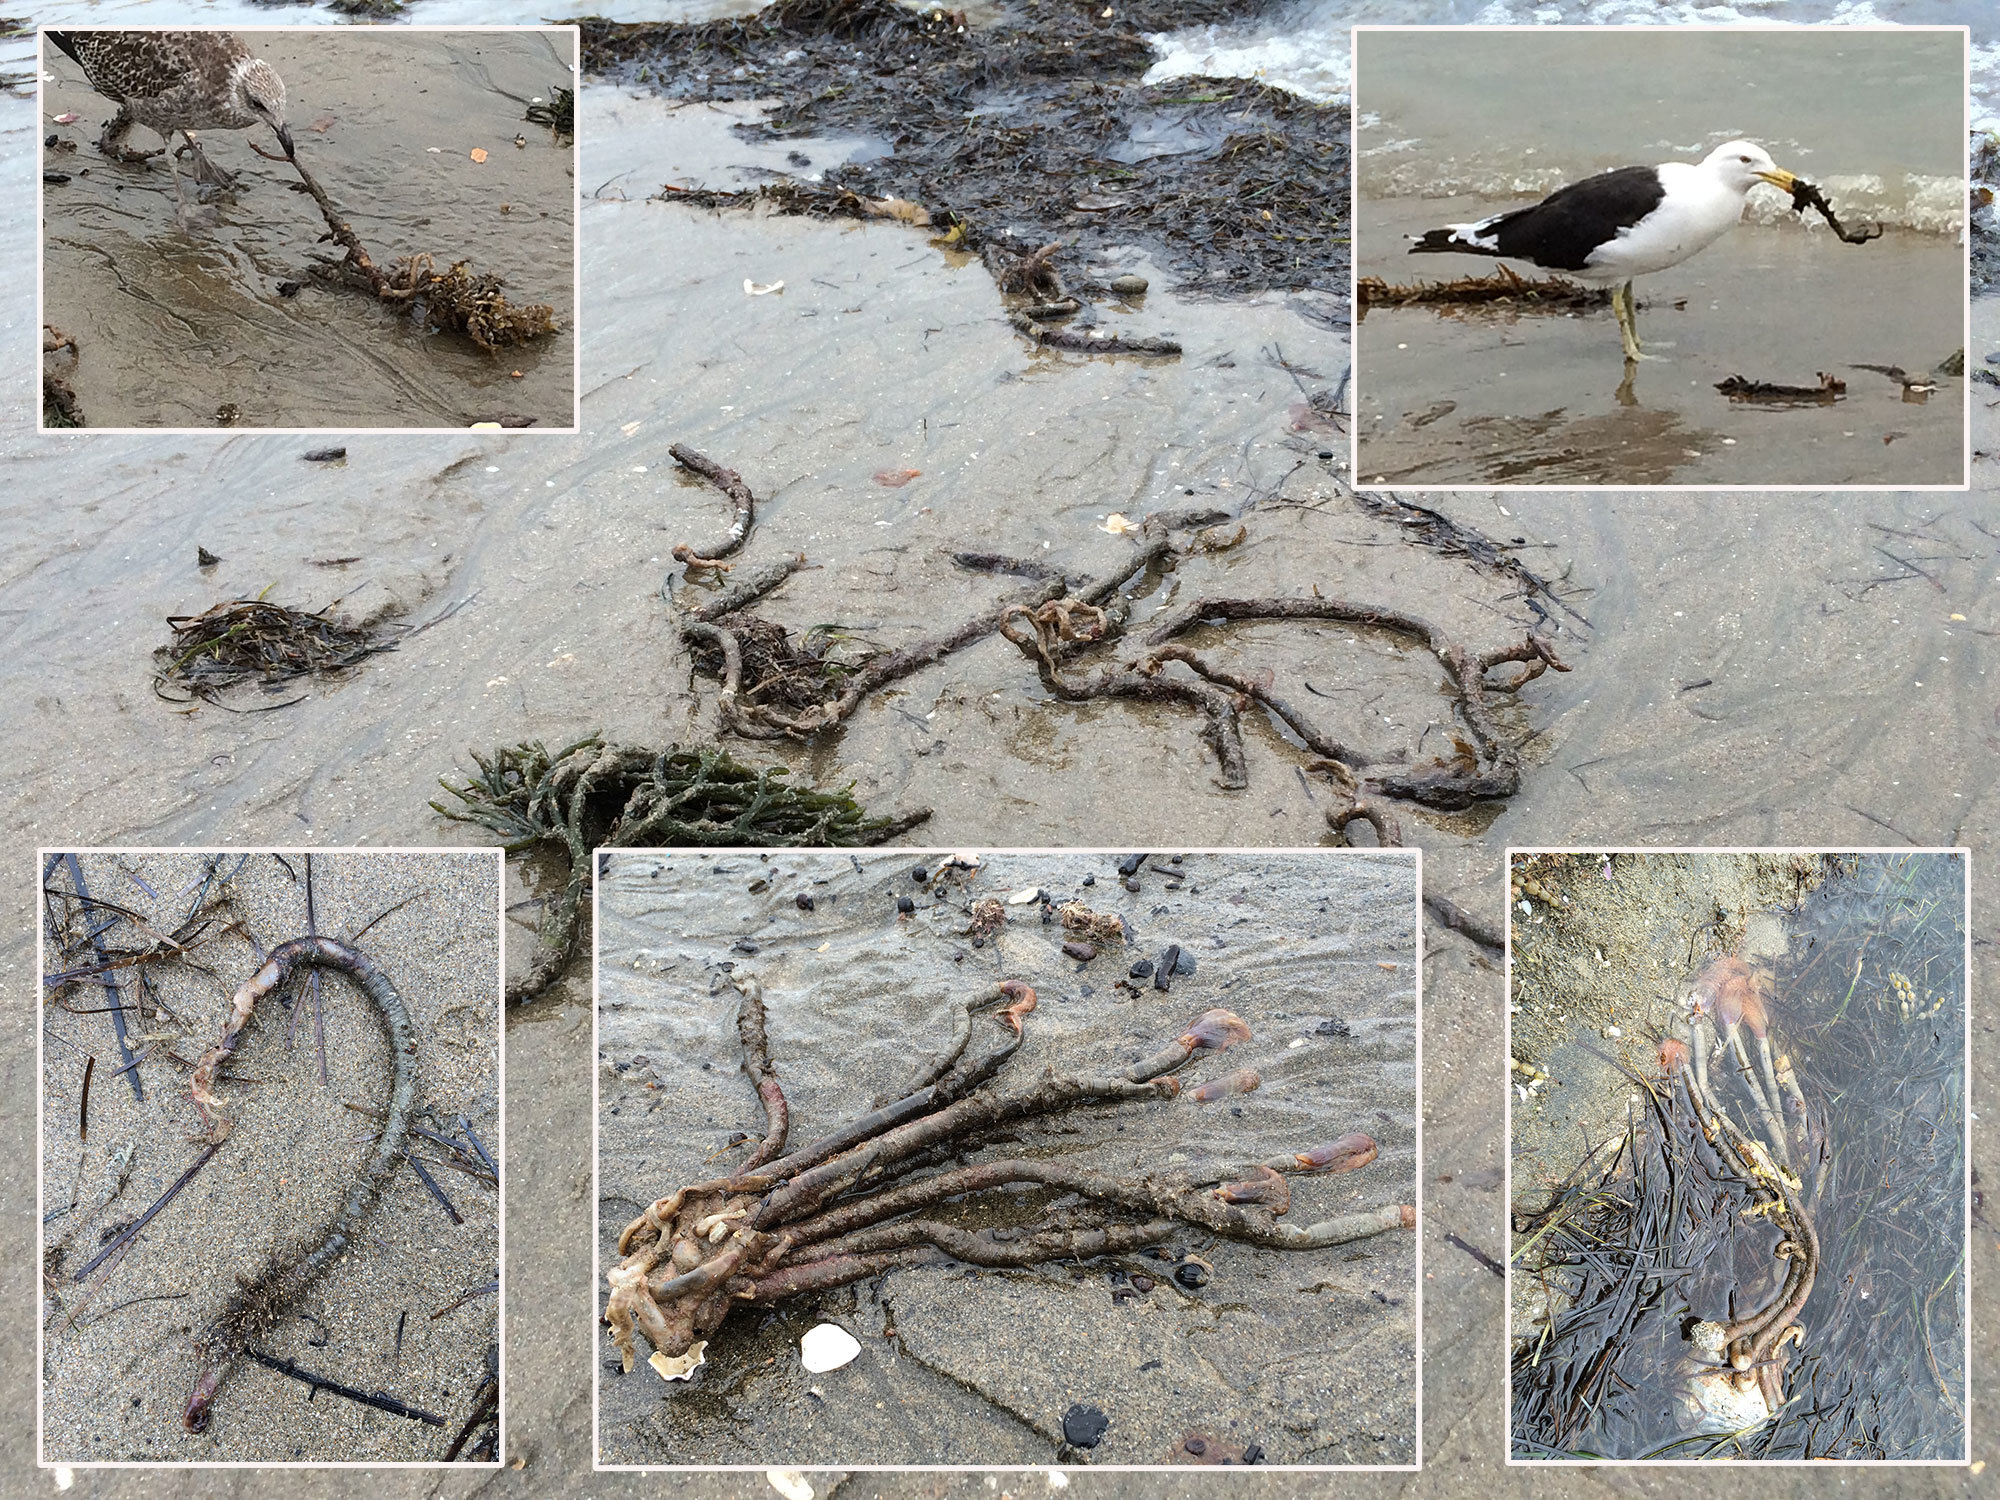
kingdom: Animalia
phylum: Annelida
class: Polychaeta
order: Sabellida
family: Sabellidae
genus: Sabella
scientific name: Sabella spallanzanii
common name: Feather duster worm
